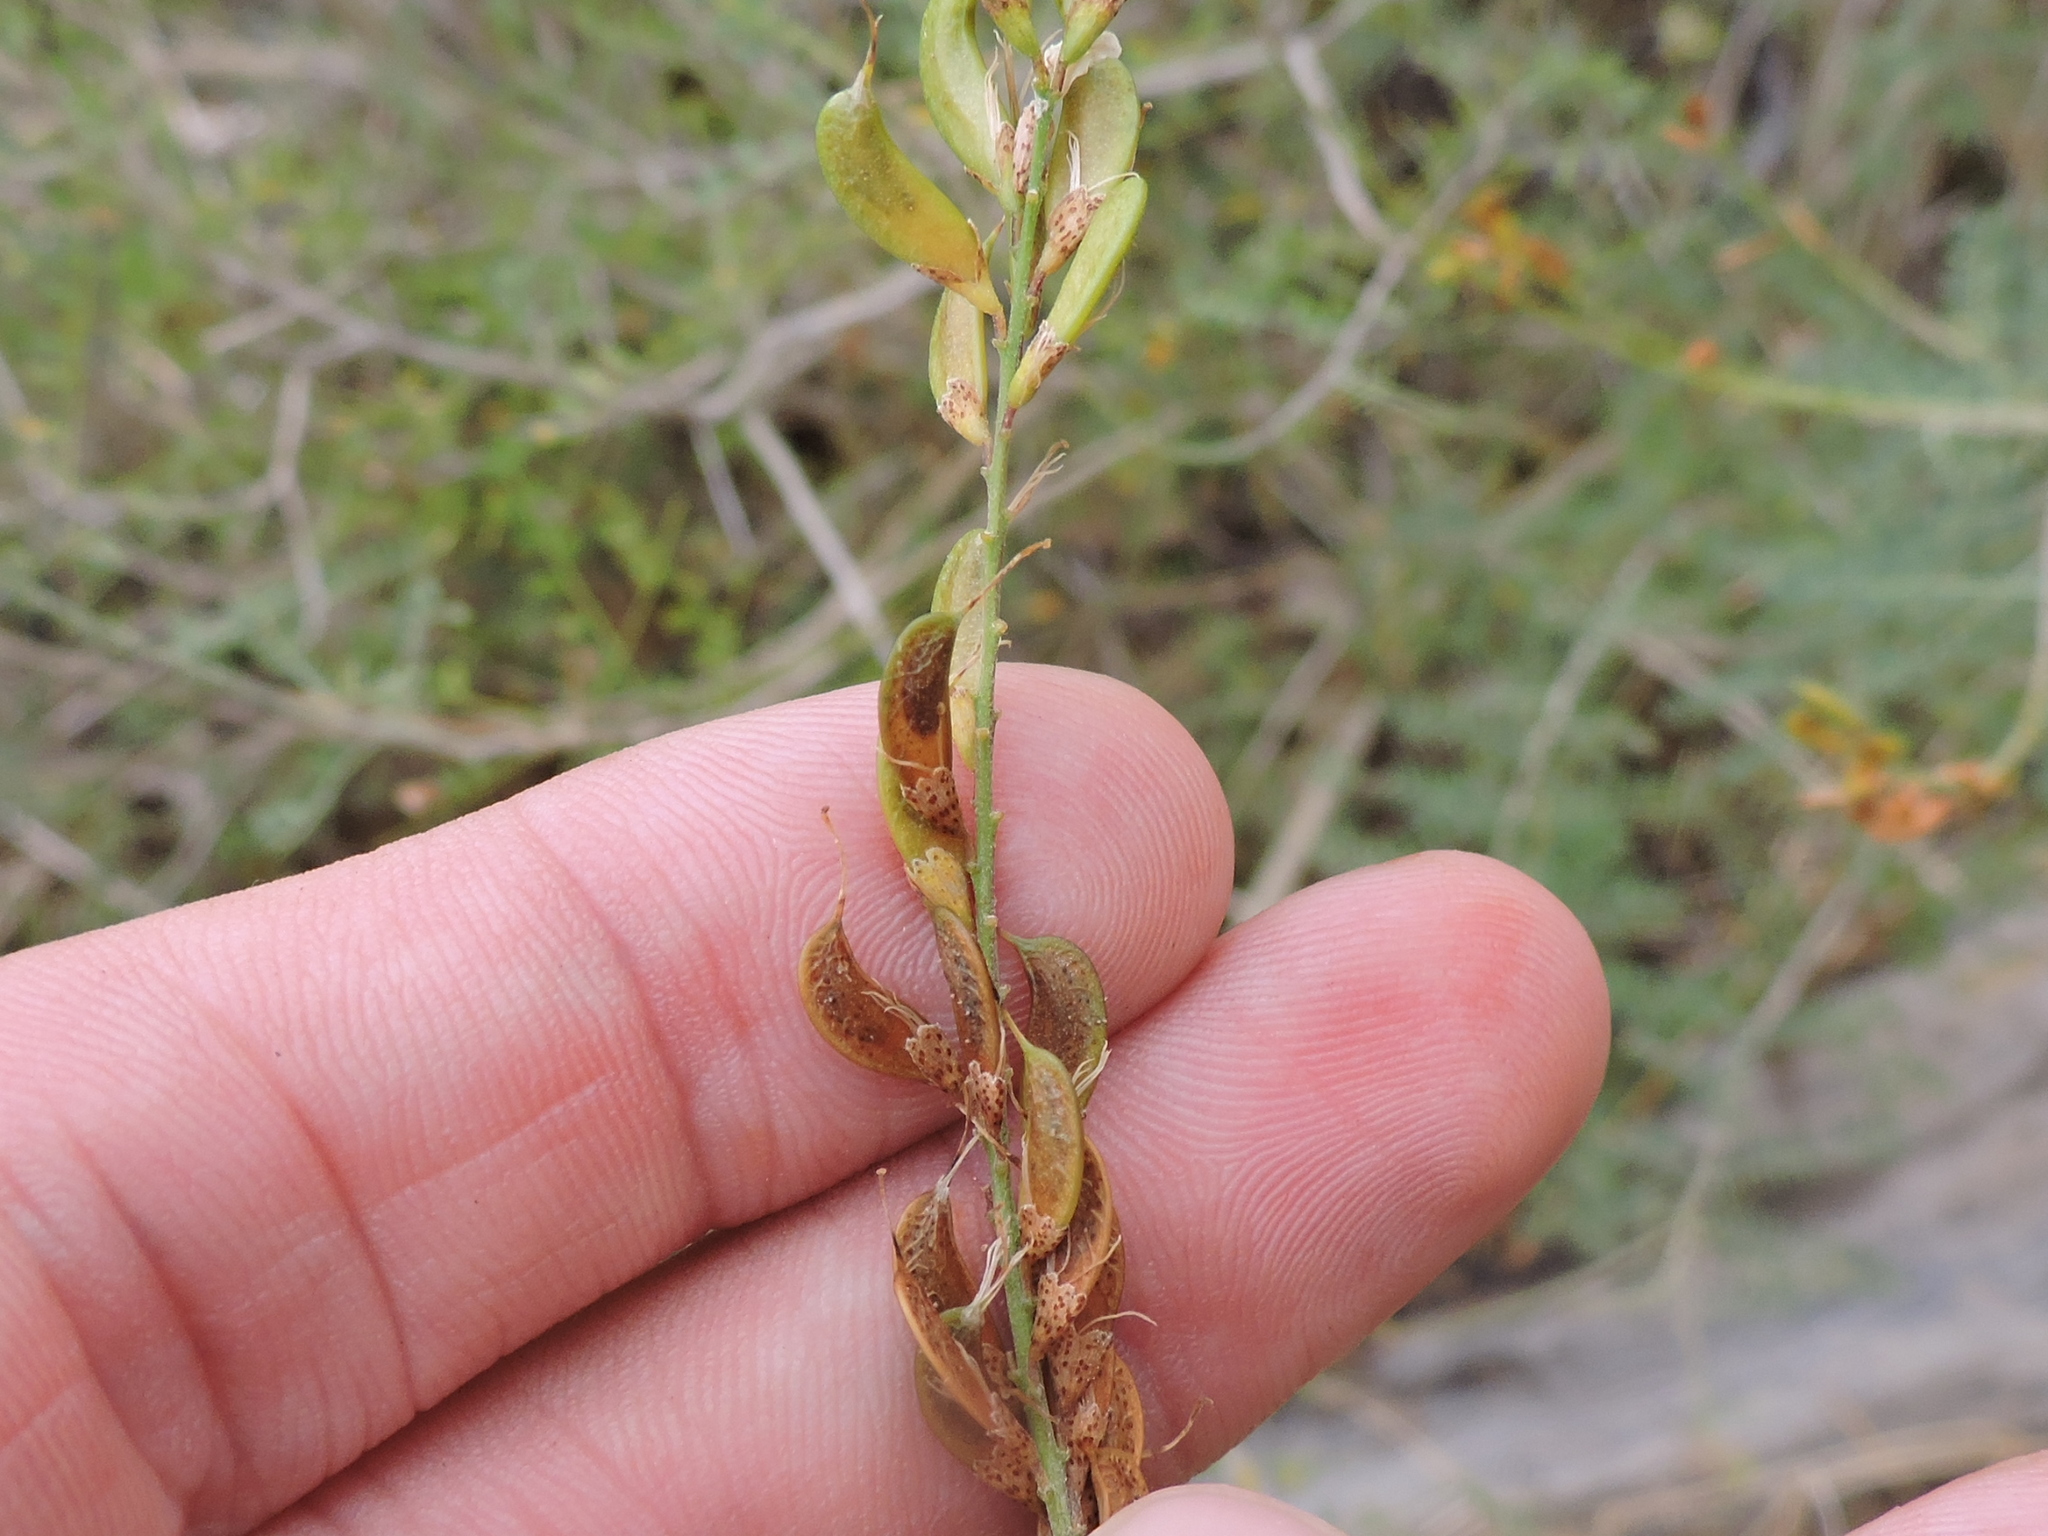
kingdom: Plantae
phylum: Tracheophyta
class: Magnoliopsida
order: Fabales
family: Fabaceae
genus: Eysenhardtia
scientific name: Eysenhardtia texana
